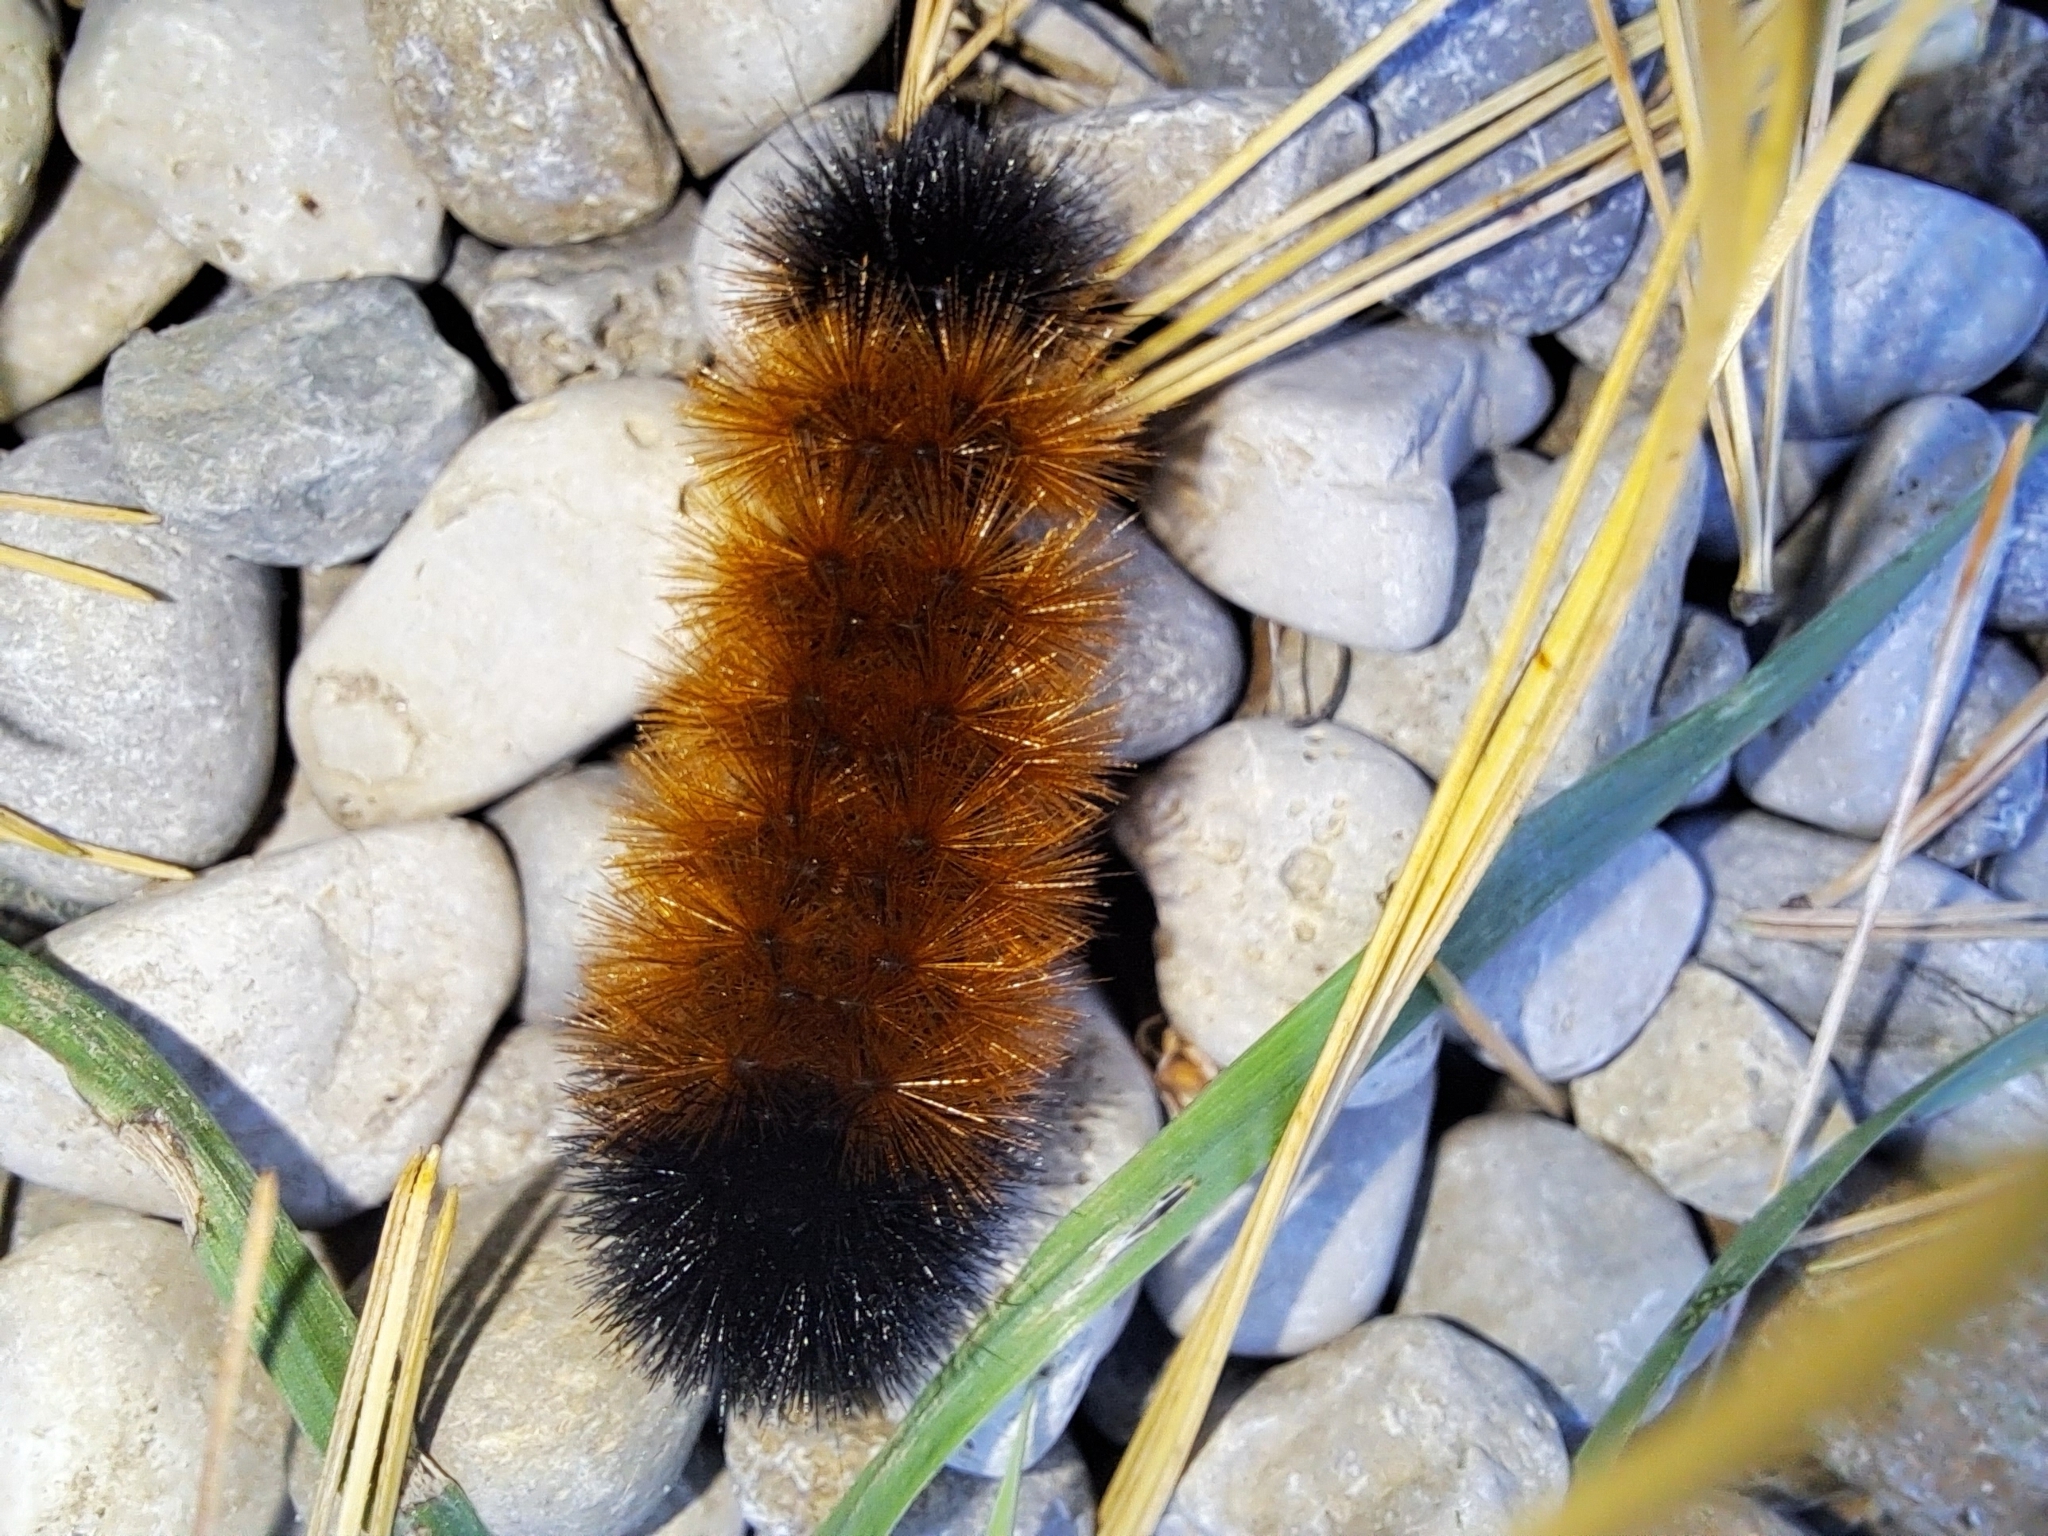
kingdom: Animalia
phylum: Arthropoda
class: Insecta
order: Lepidoptera
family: Erebidae
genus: Pyrrharctia
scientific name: Pyrrharctia isabella
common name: Isabella tiger moth
